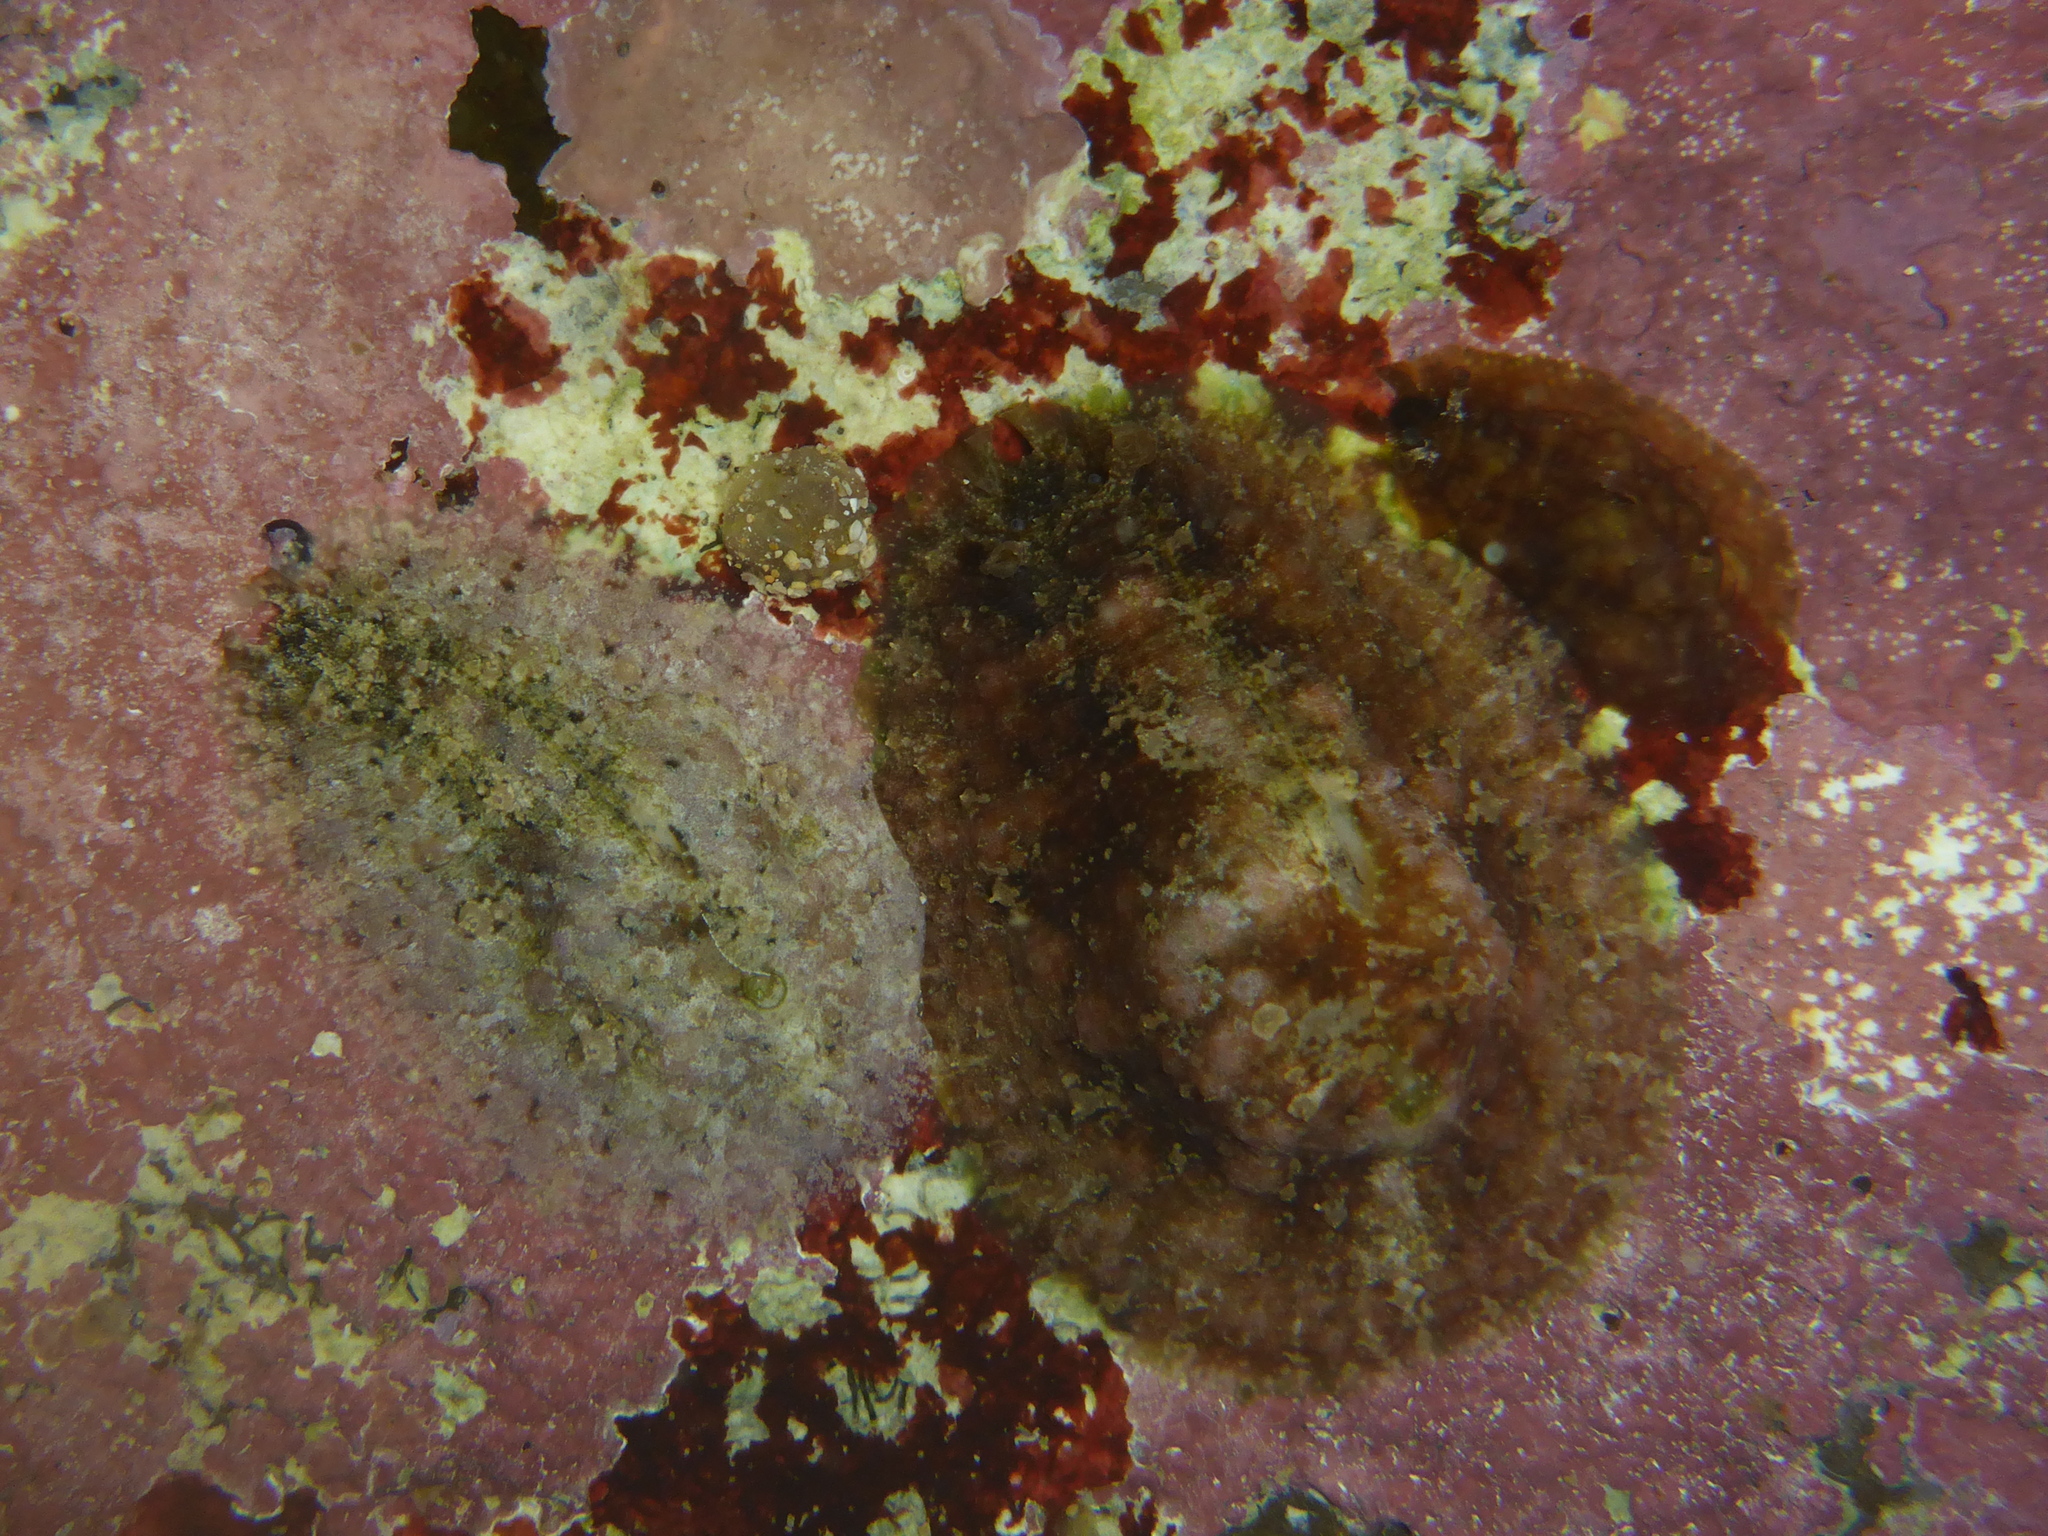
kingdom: Animalia
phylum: Mollusca
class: Gastropoda
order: Aplysiida
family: Aplysiidae
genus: Dolabrifera
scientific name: Dolabrifera dolabrifera
